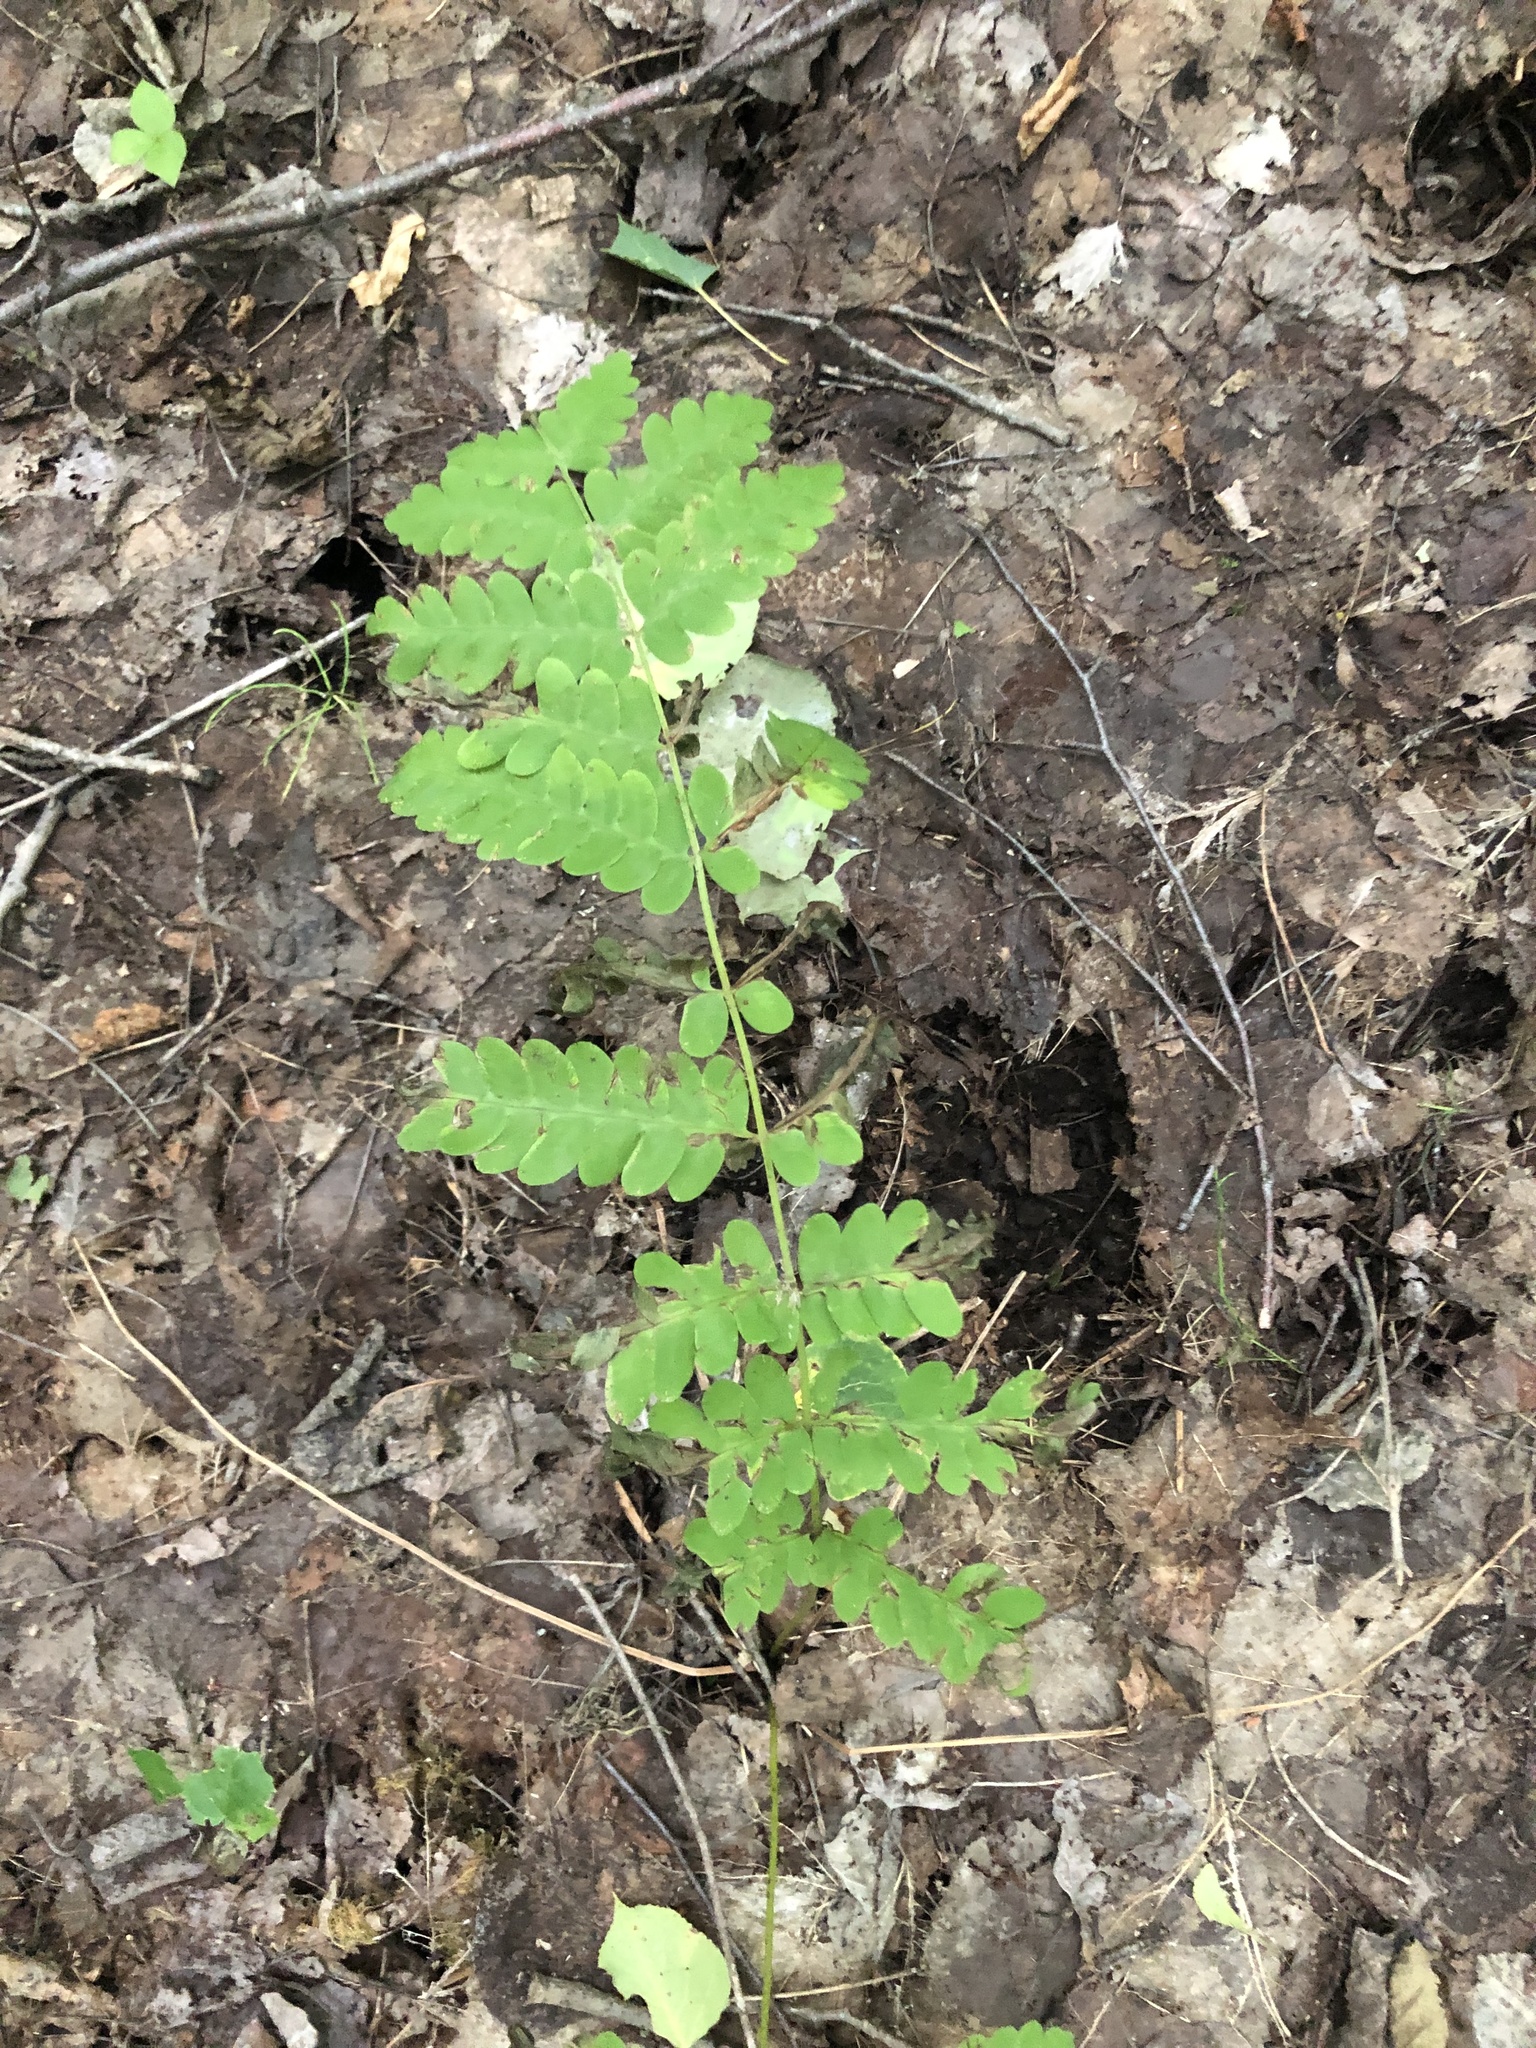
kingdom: Plantae
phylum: Tracheophyta
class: Polypodiopsida
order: Osmundales
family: Osmundaceae
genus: Claytosmunda
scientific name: Claytosmunda claytoniana
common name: Clayton's fern
